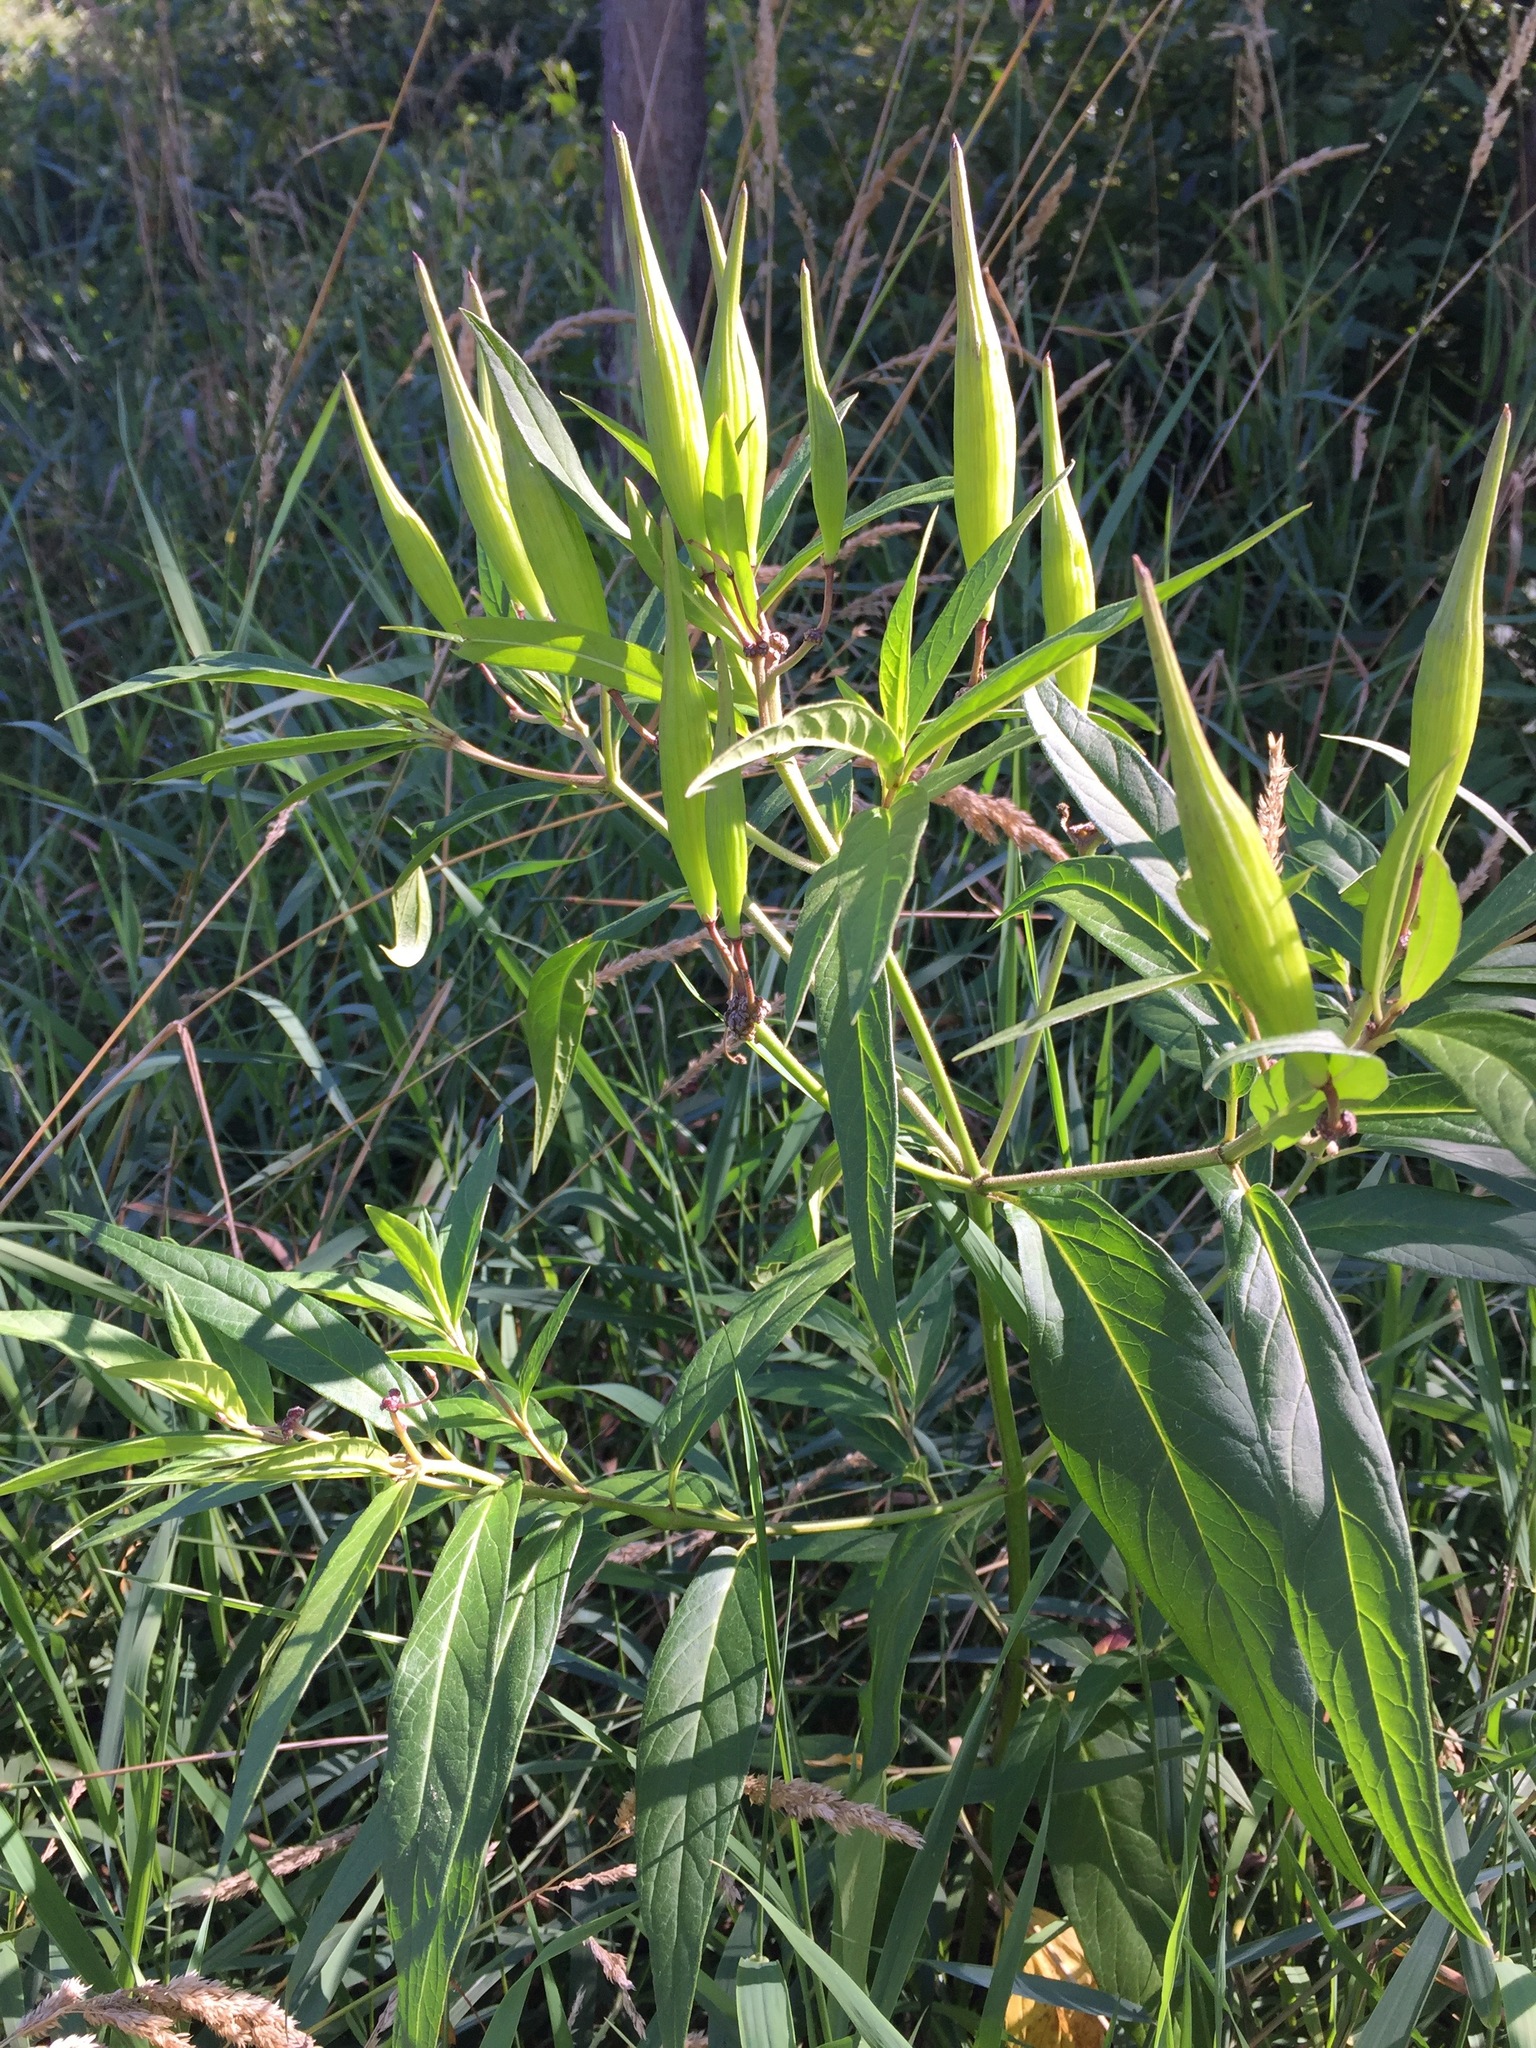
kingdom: Plantae
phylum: Tracheophyta
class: Magnoliopsida
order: Gentianales
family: Apocynaceae
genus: Asclepias
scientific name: Asclepias incarnata
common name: Swamp milkweed
